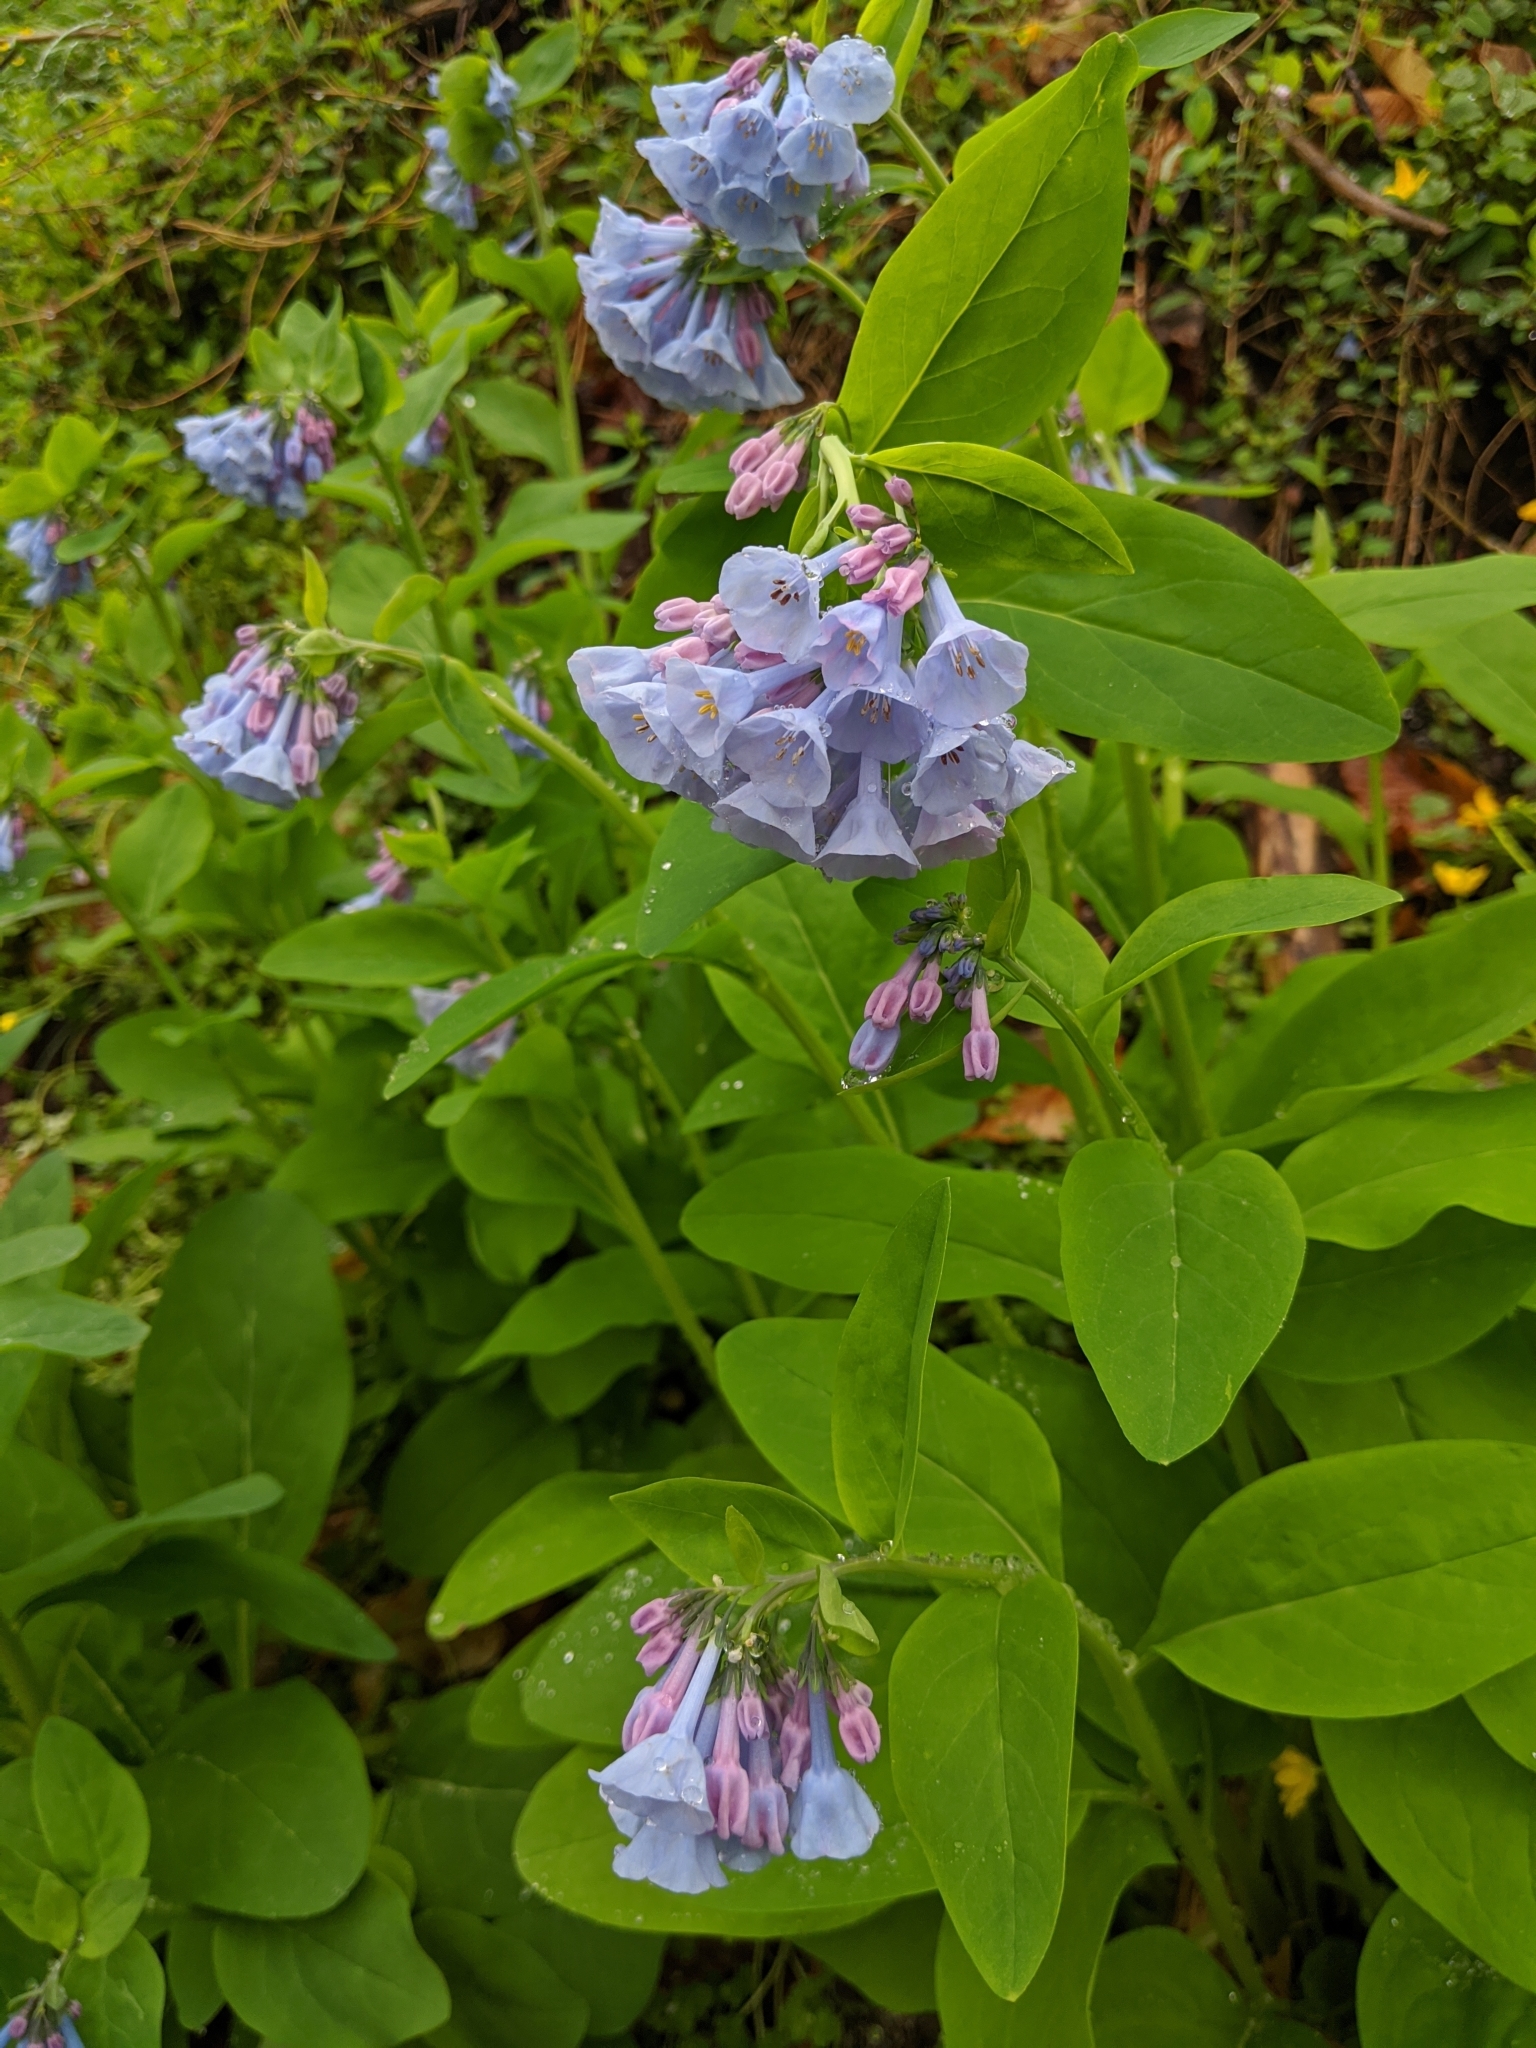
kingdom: Plantae
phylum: Tracheophyta
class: Magnoliopsida
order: Boraginales
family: Boraginaceae
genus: Mertensia
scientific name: Mertensia virginica
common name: Virginia bluebells
